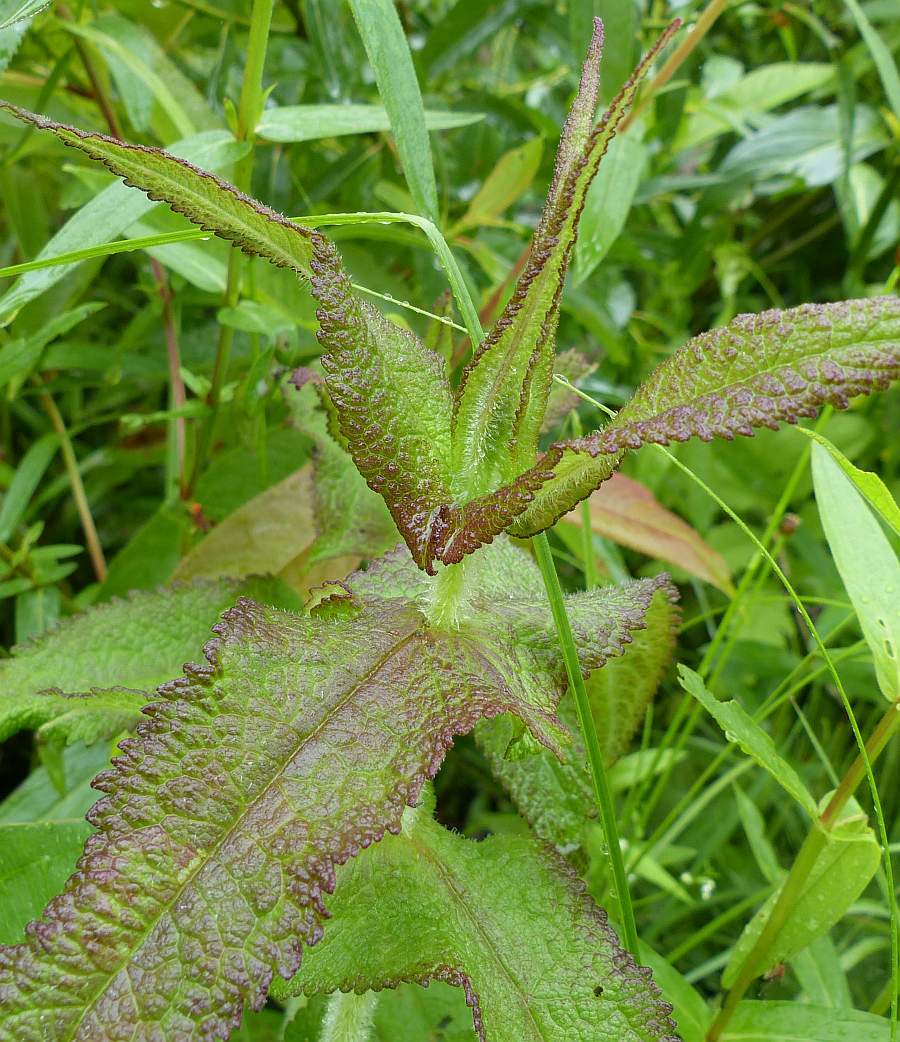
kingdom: Plantae
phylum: Tracheophyta
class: Magnoliopsida
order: Asterales
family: Asteraceae
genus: Eupatorium
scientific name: Eupatorium perfoliatum
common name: Boneset
